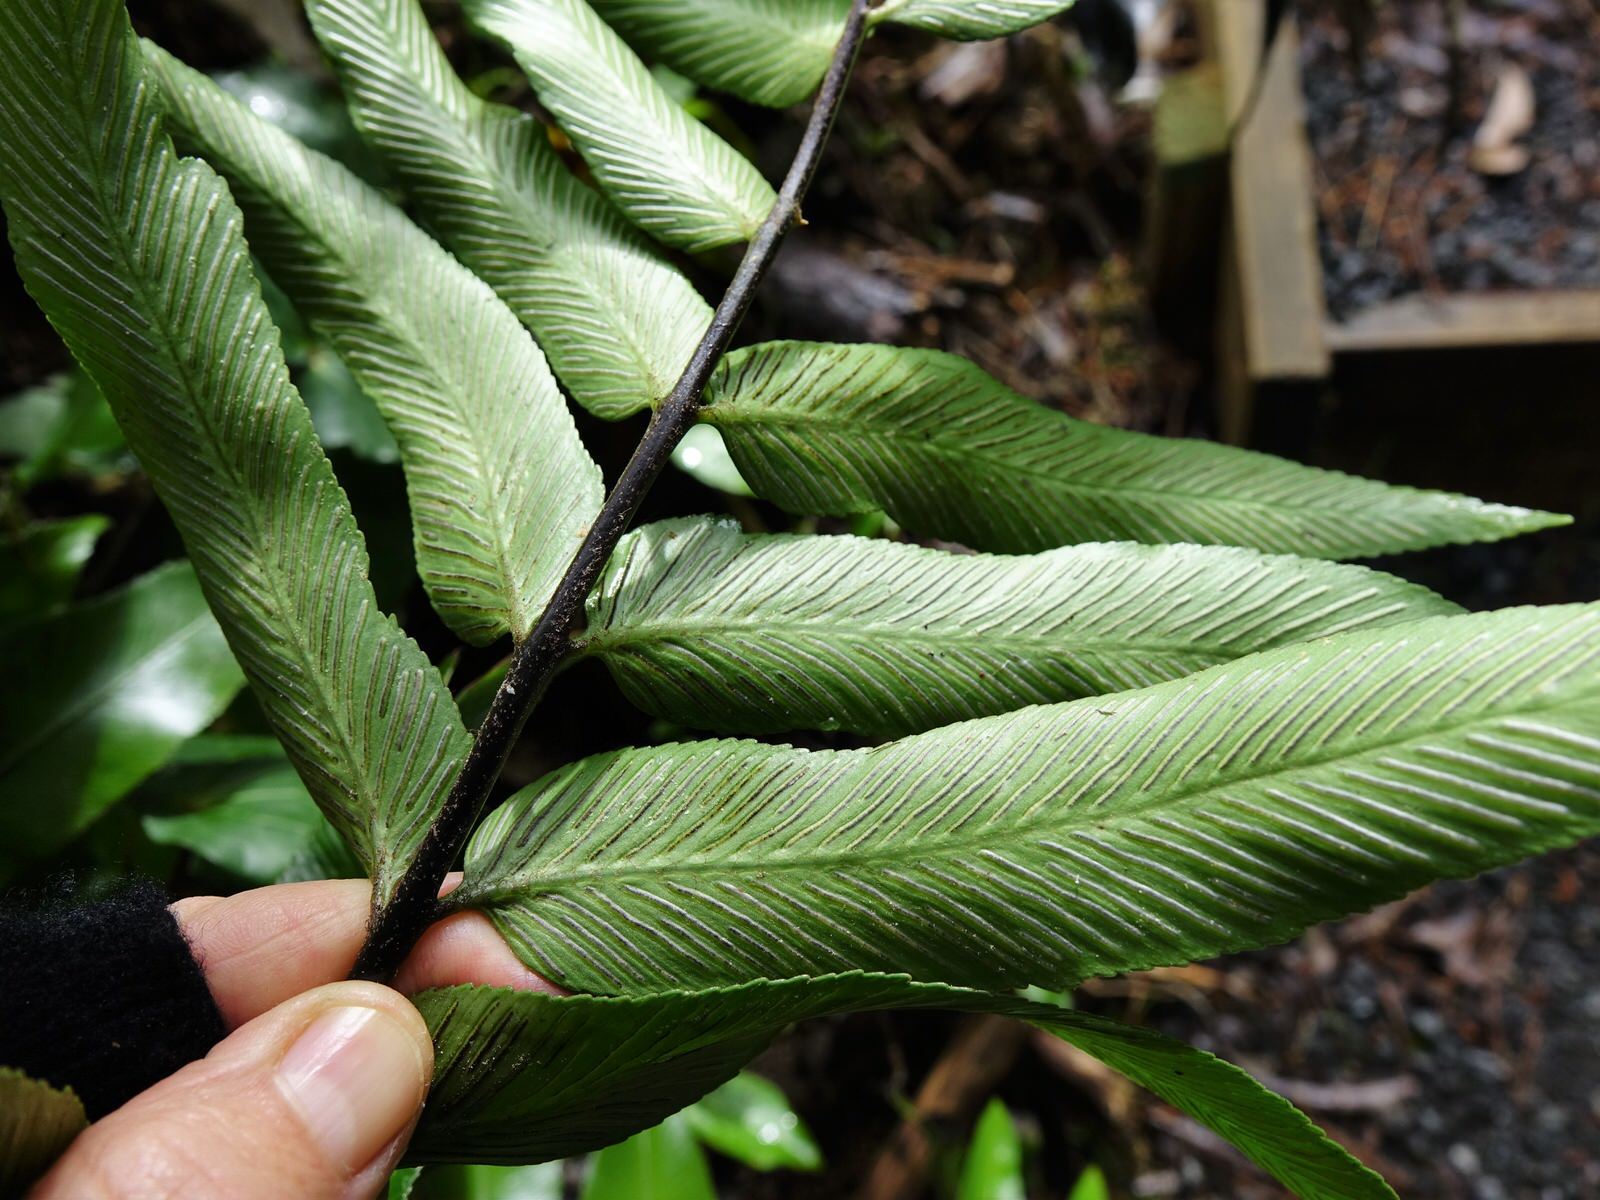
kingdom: Plantae
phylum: Tracheophyta
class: Polypodiopsida
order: Polypodiales
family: Aspleniaceae
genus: Asplenium
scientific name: Asplenium oblongifolium
